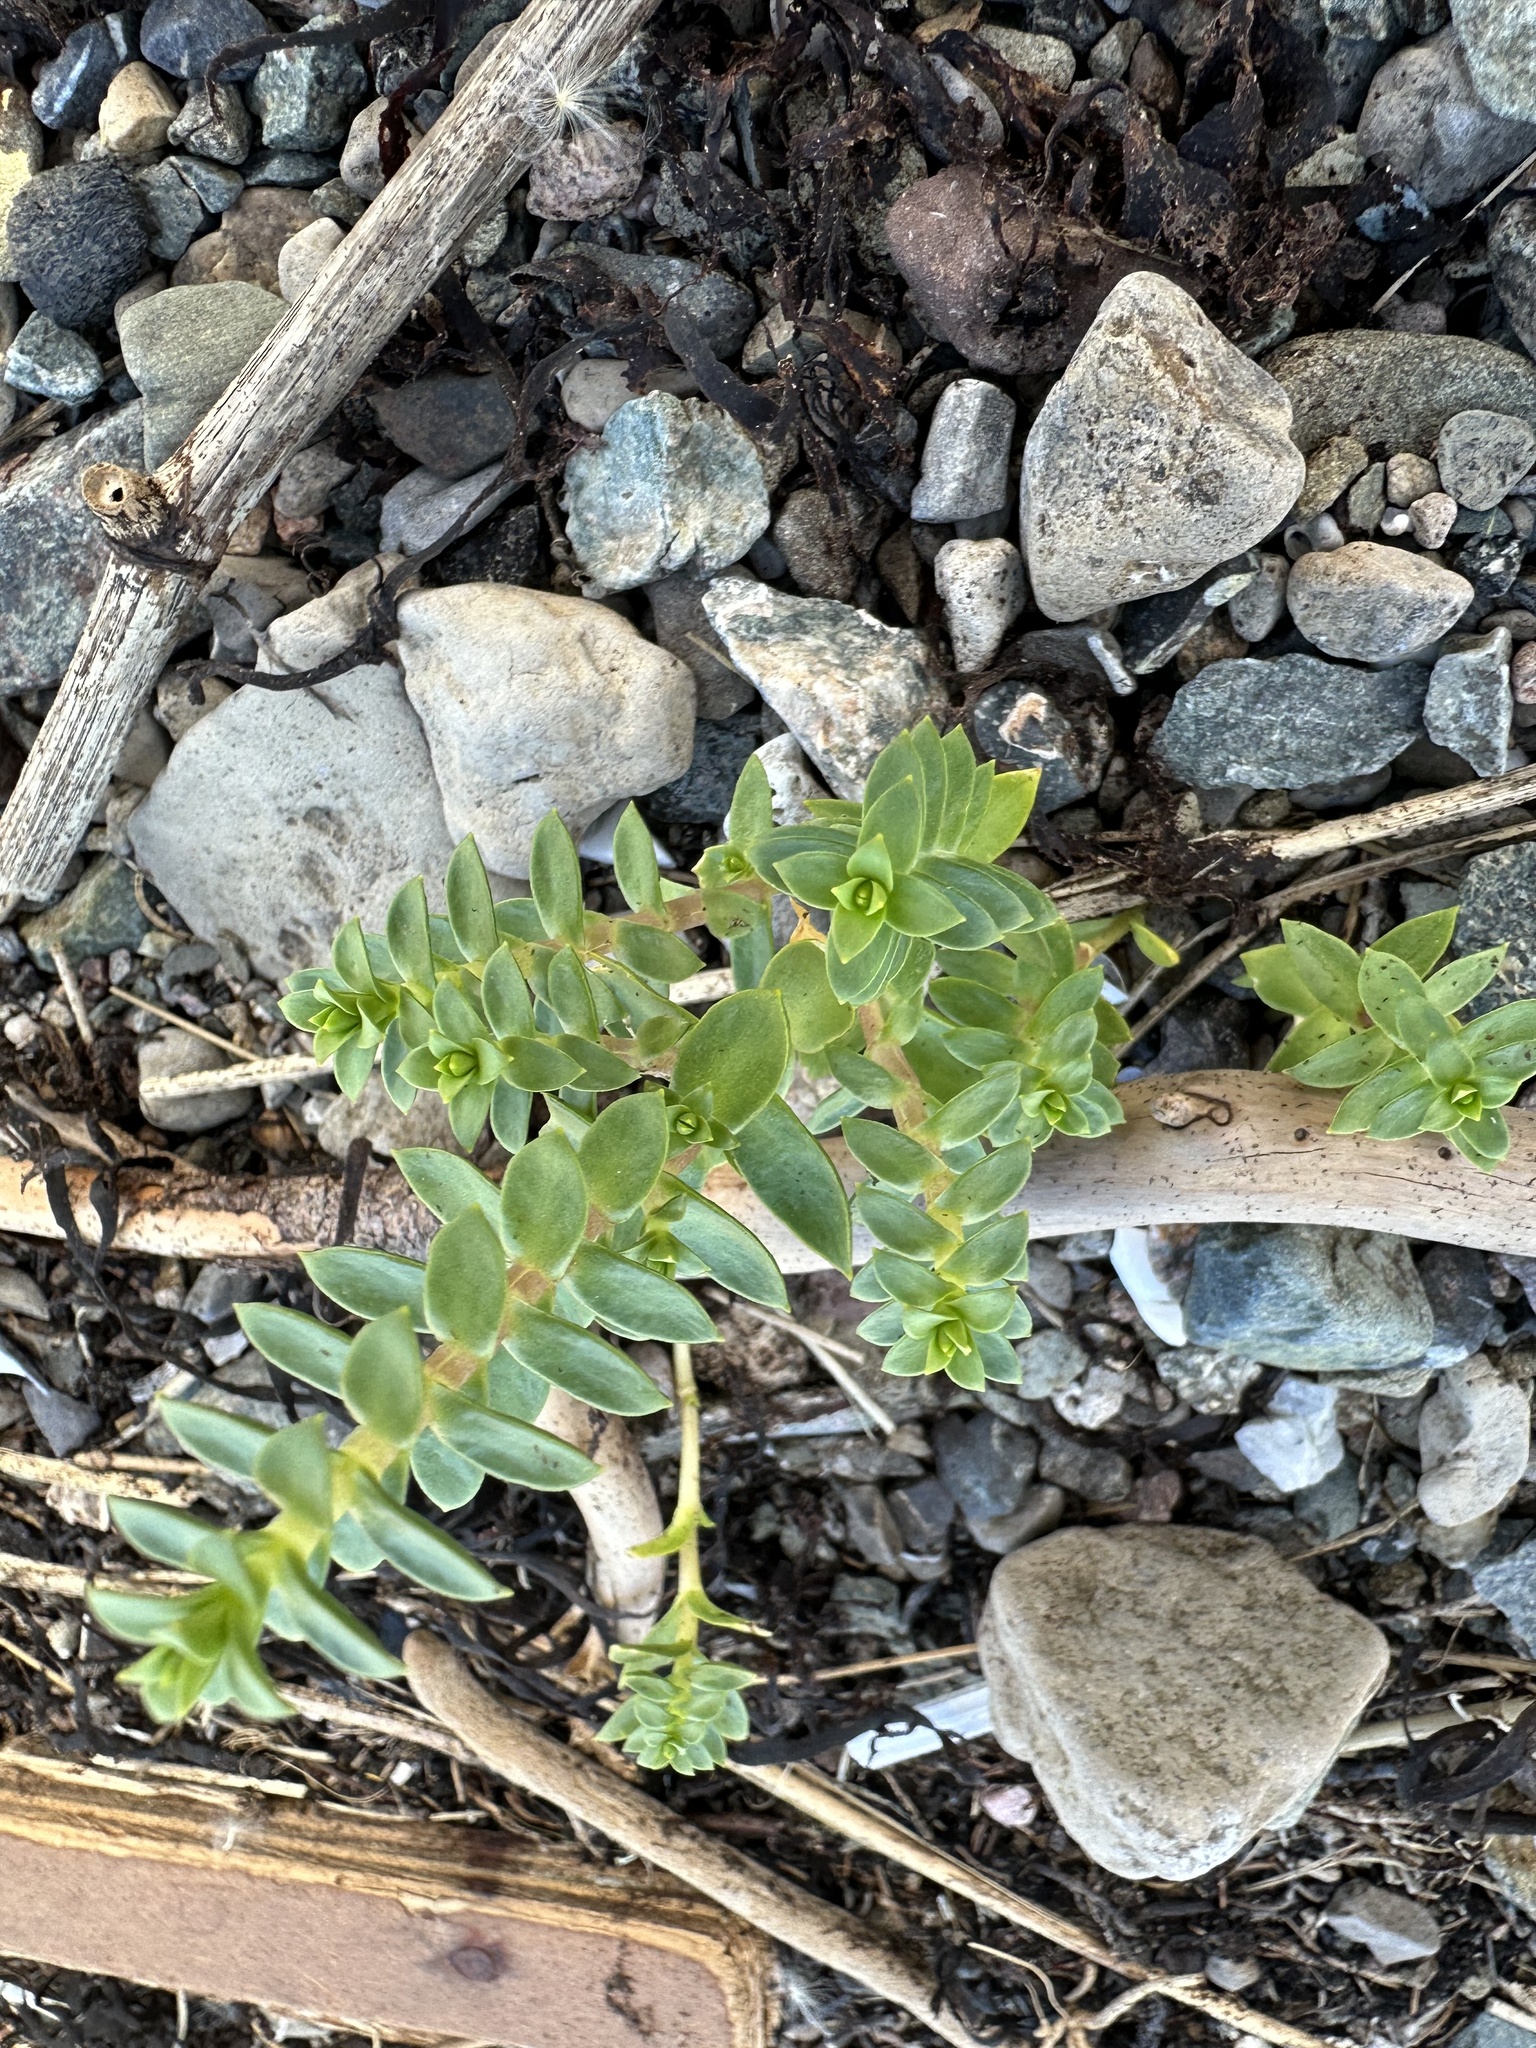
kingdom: Plantae
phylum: Tracheophyta
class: Magnoliopsida
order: Caryophyllales
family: Caryophyllaceae
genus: Honckenya
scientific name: Honckenya peploides
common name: Sea sandwort
